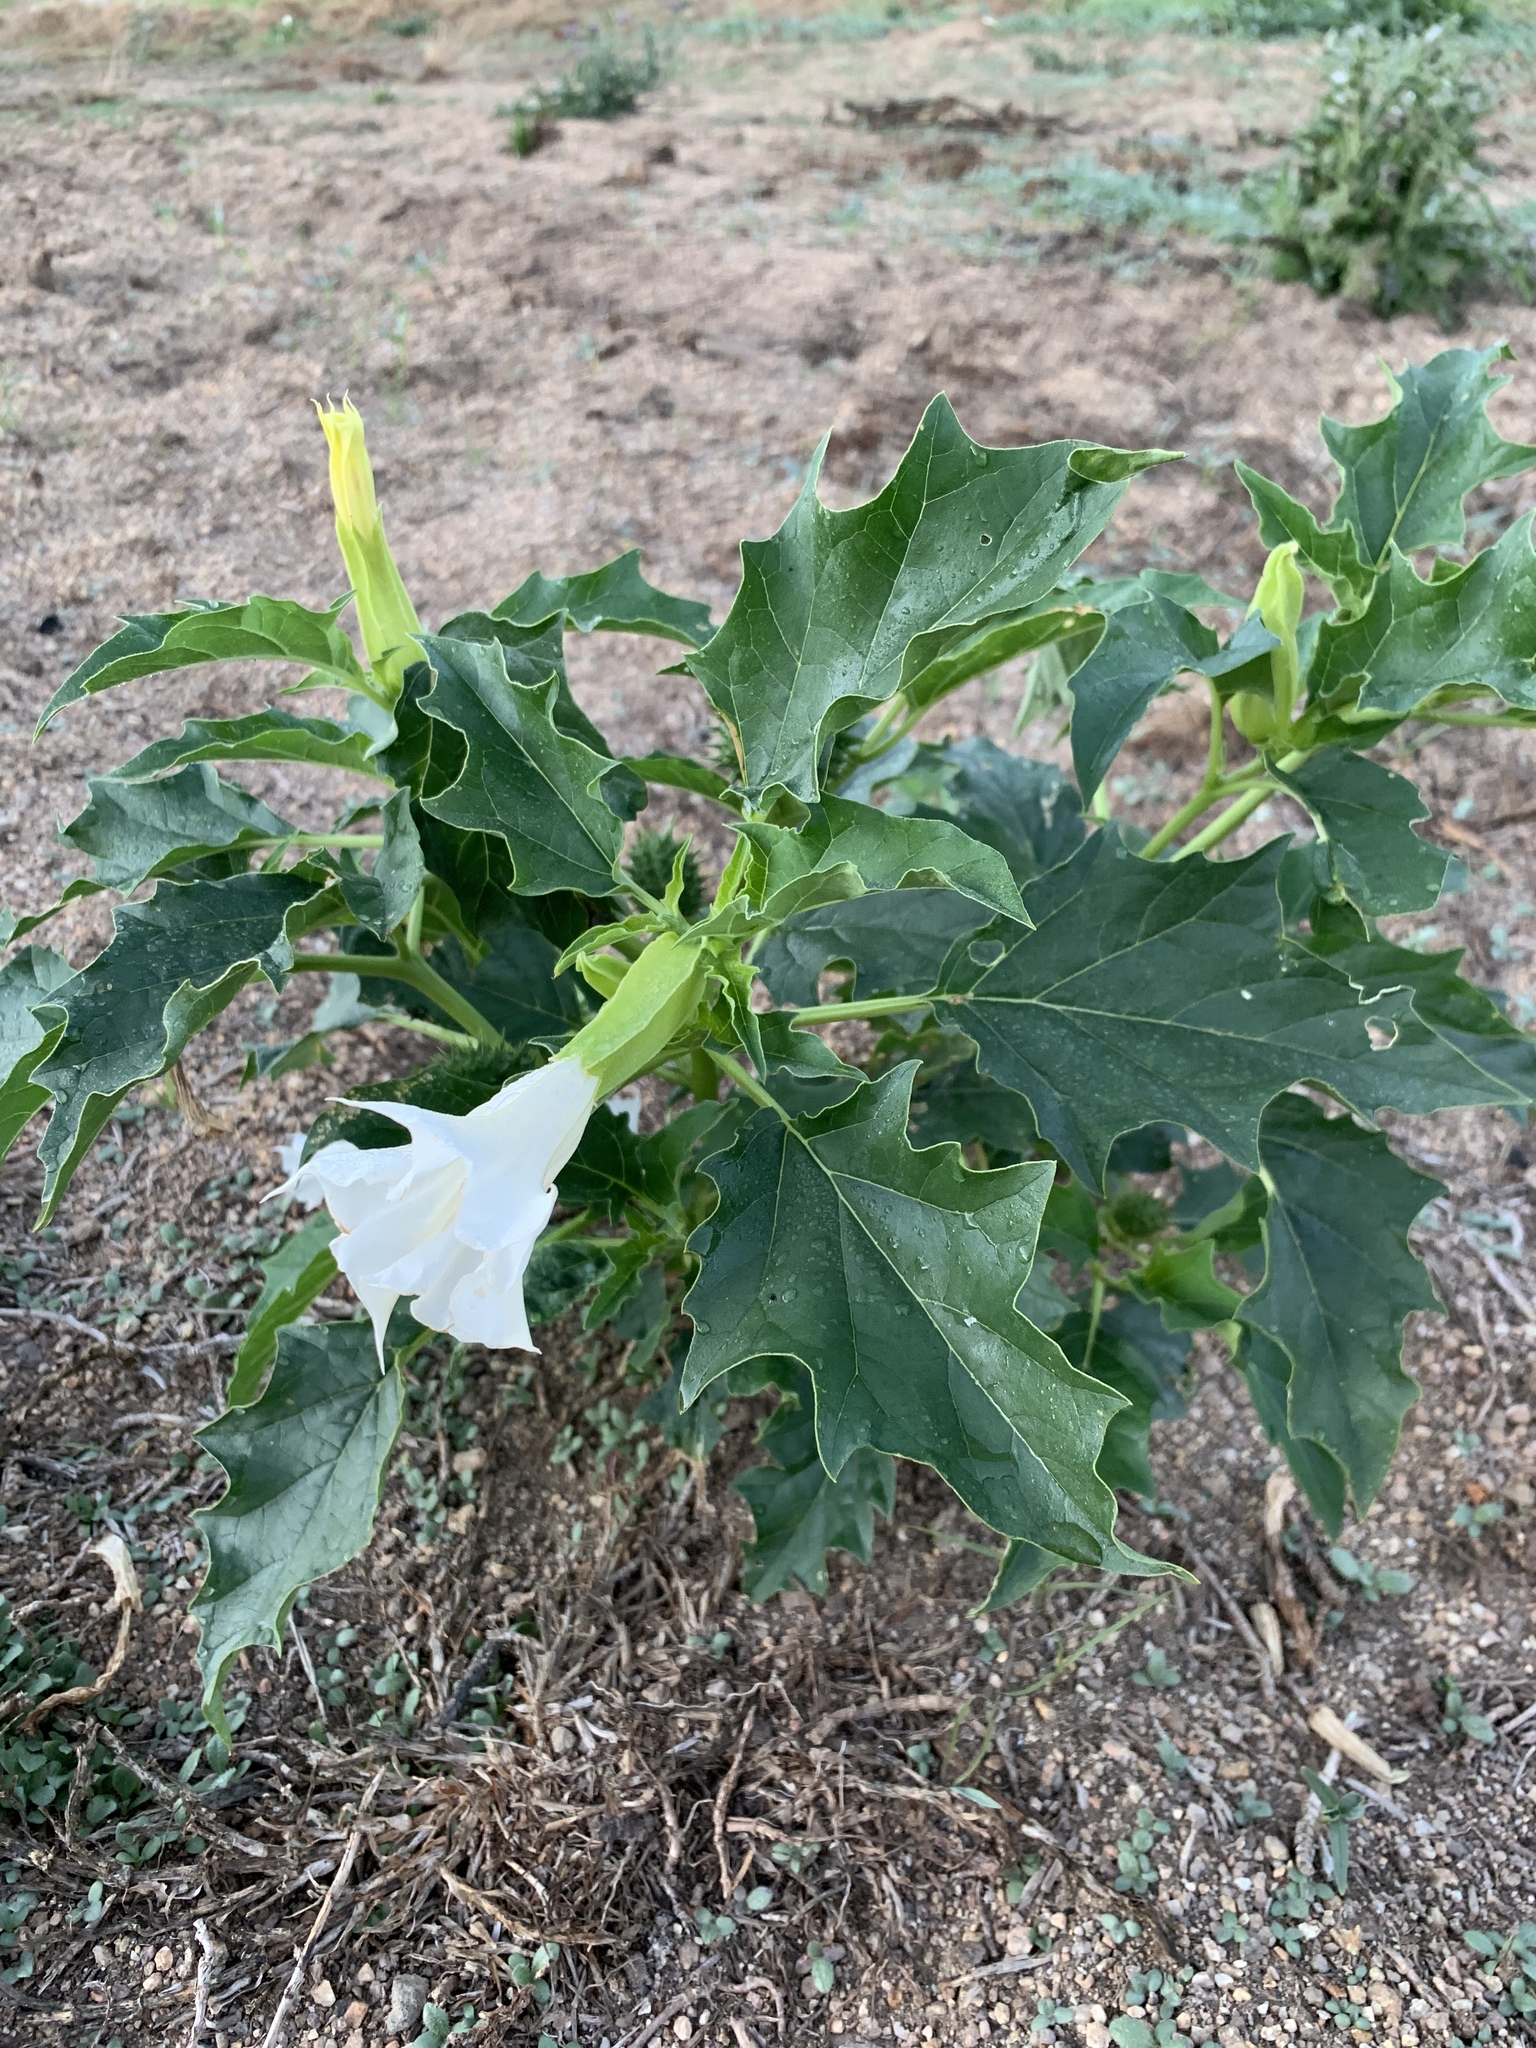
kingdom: Plantae
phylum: Tracheophyta
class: Magnoliopsida
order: Solanales
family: Solanaceae
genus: Datura
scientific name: Datura stramonium
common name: Thorn-apple
